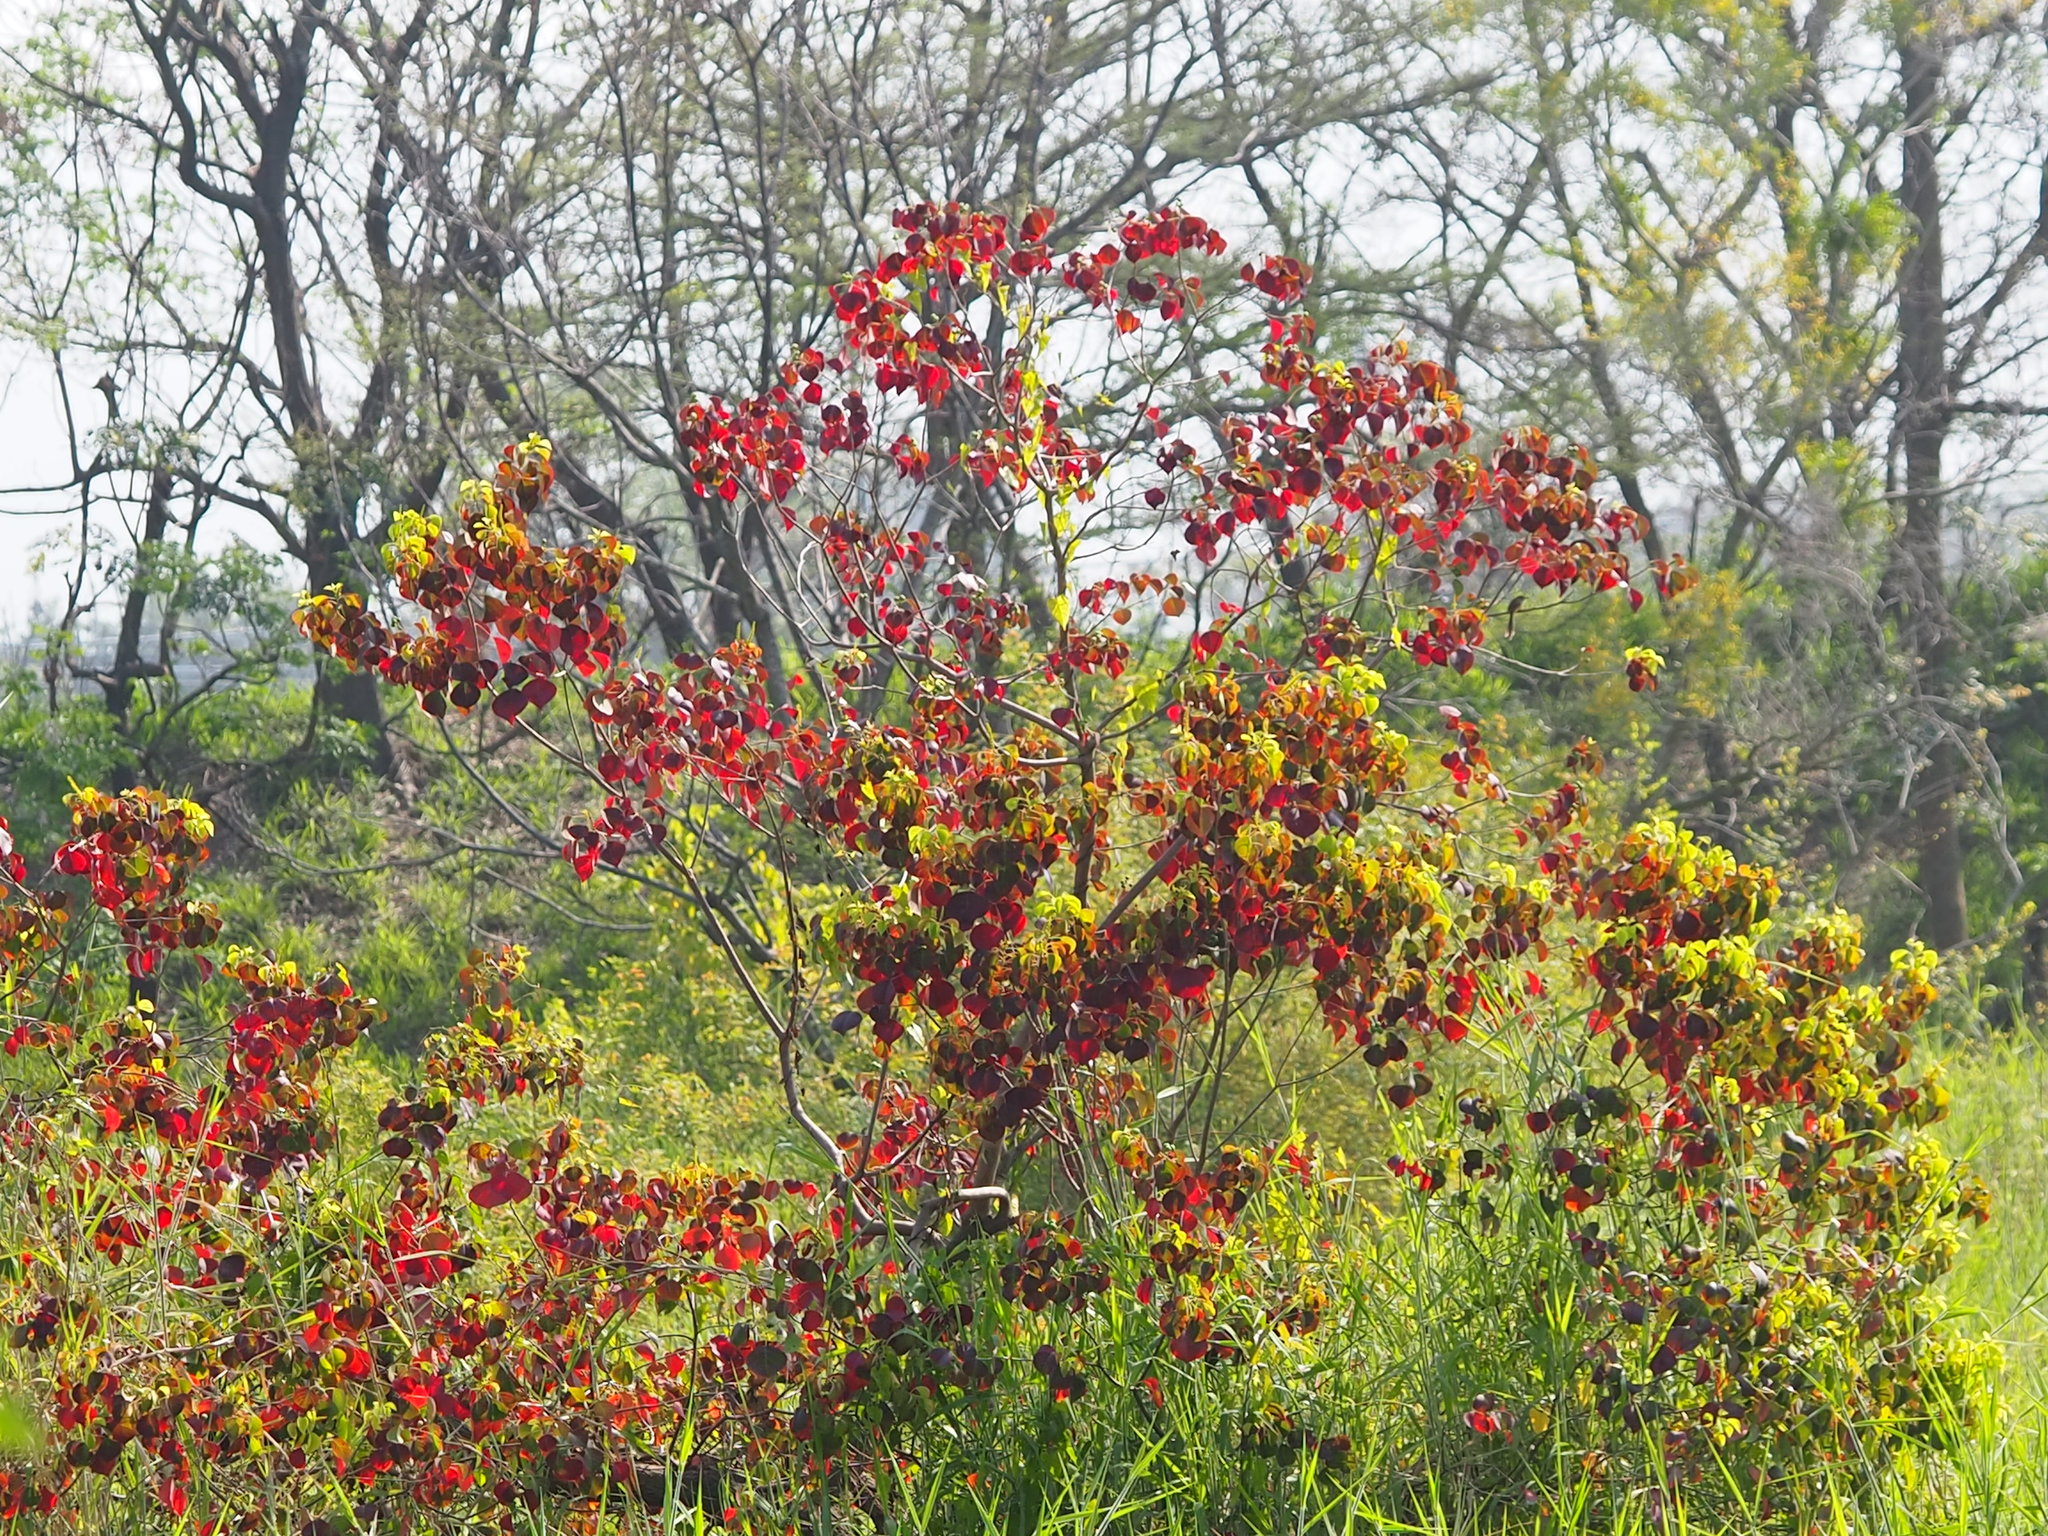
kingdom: Plantae
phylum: Tracheophyta
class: Magnoliopsida
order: Malpighiales
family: Euphorbiaceae
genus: Triadica
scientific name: Triadica sebifera
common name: Chinese tallow
